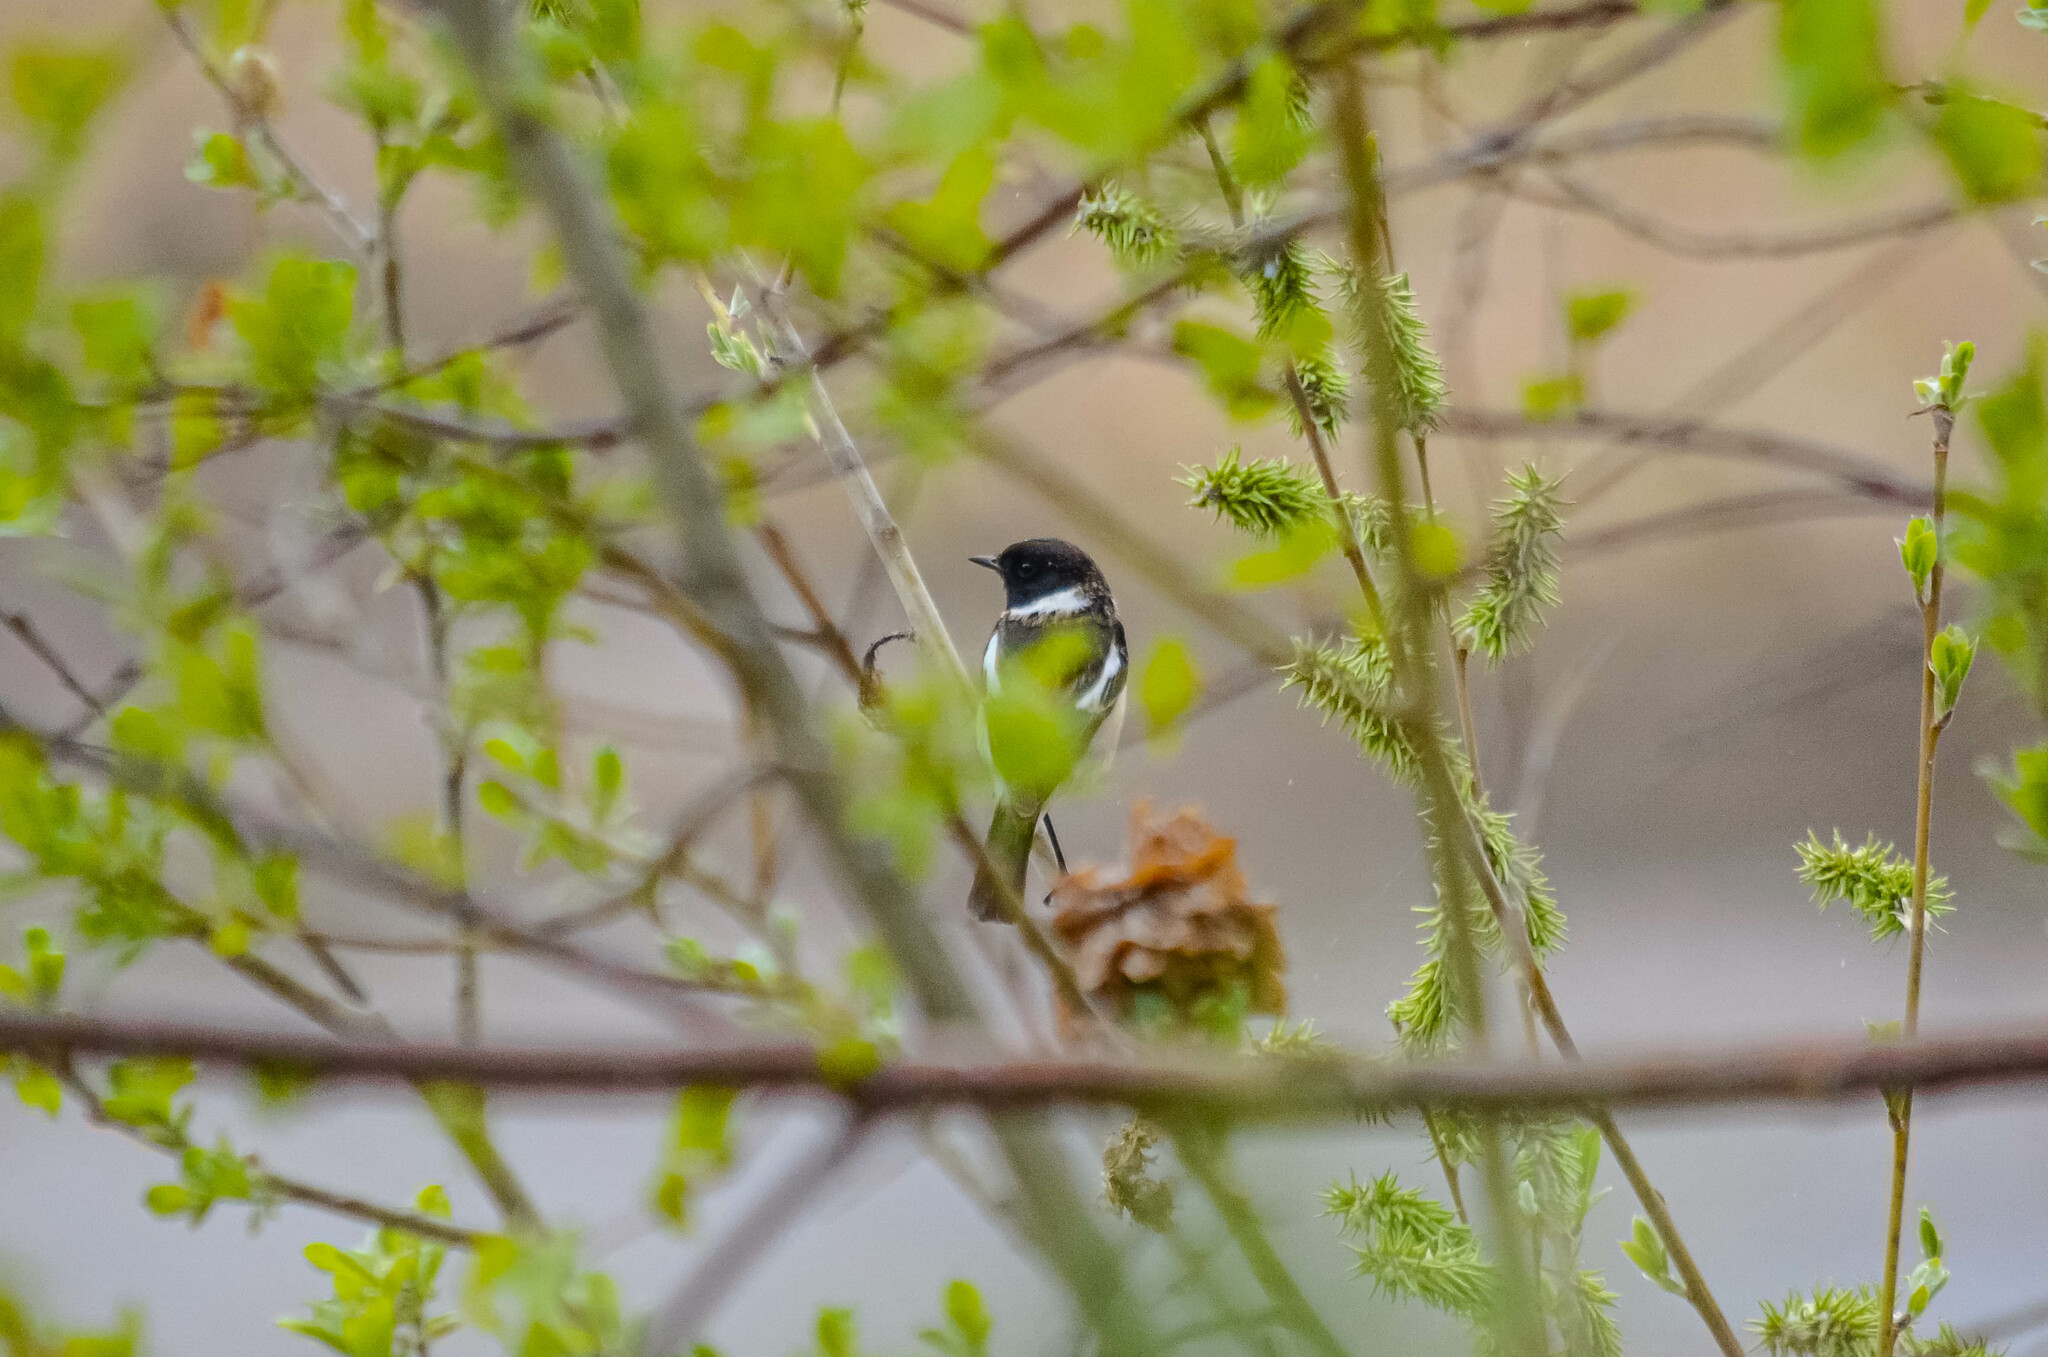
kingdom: Animalia
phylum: Chordata
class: Aves
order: Passeriformes
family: Muscicapidae
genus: Saxicola
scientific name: Saxicola maurus
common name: Siberian stonechat
